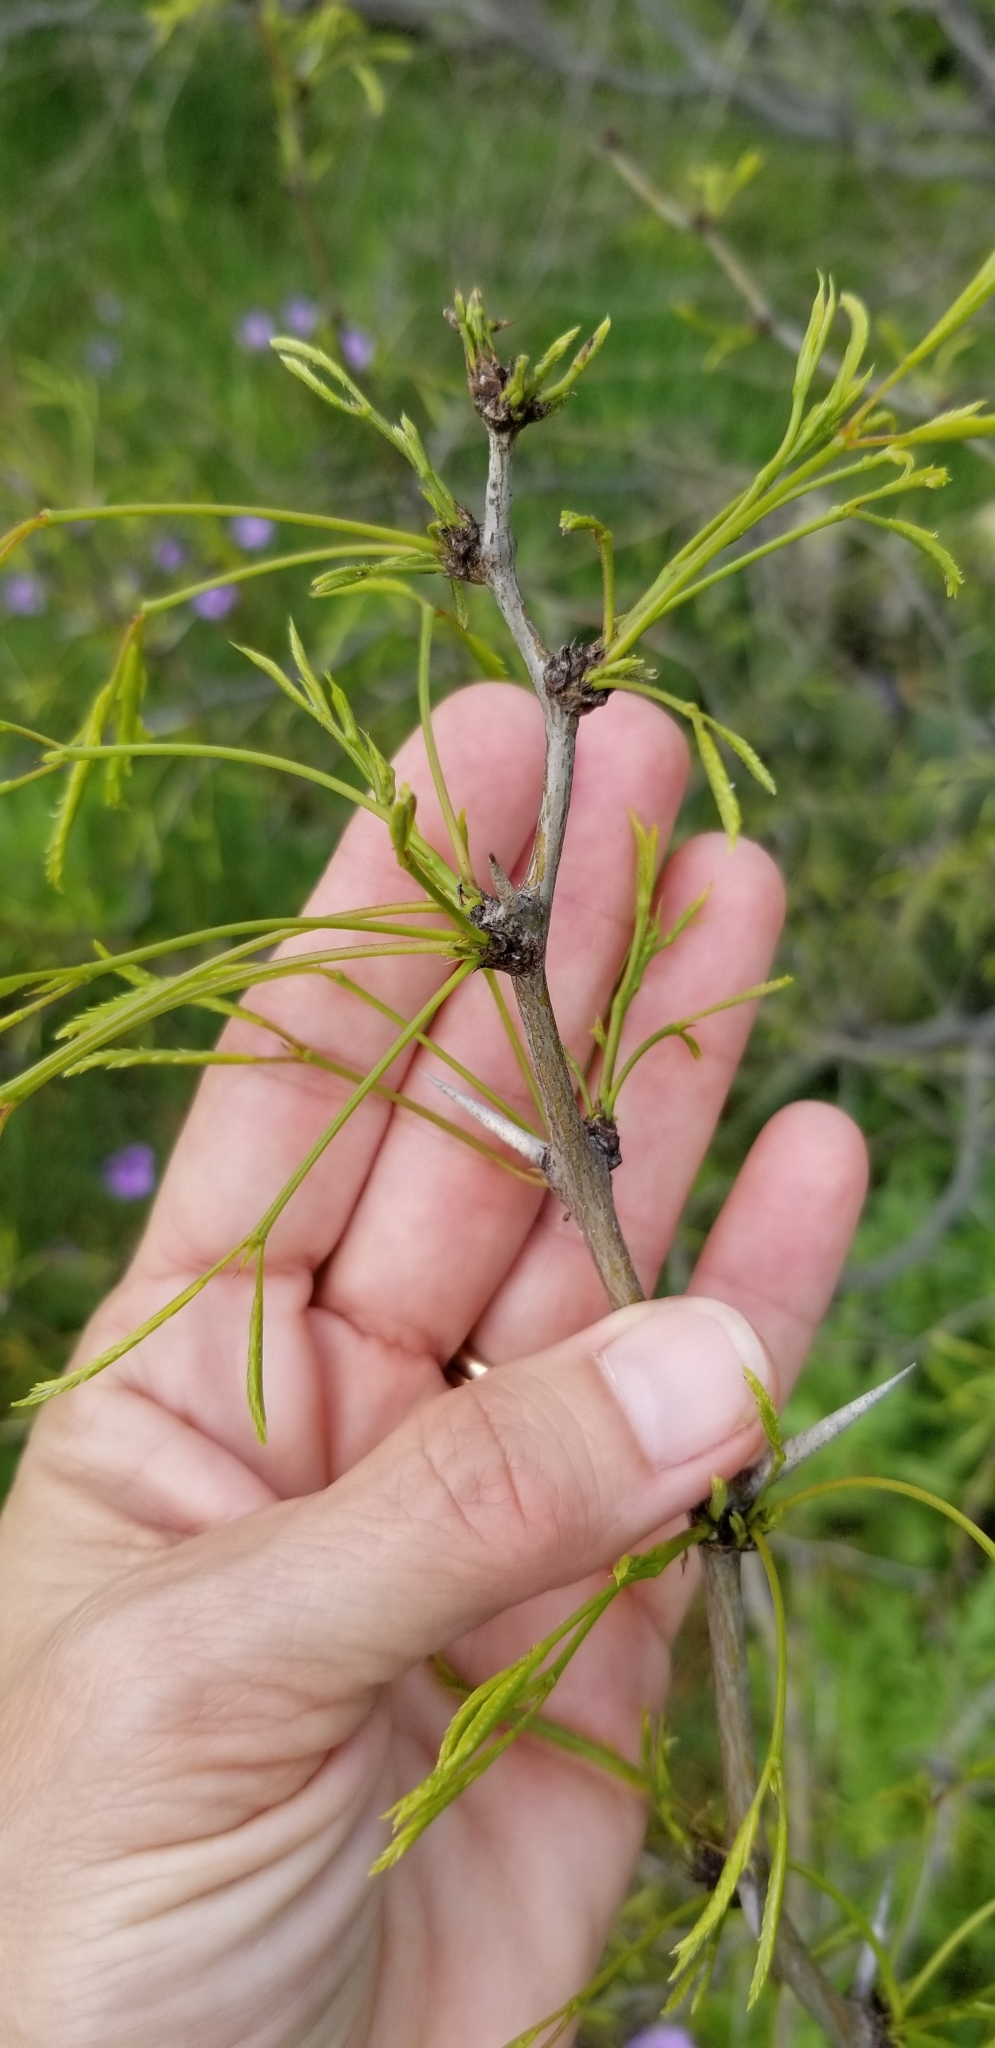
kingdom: Plantae
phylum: Tracheophyta
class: Magnoliopsida
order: Fabales
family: Fabaceae
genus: Prosopis
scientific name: Prosopis glandulosa
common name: Honey mesquite
